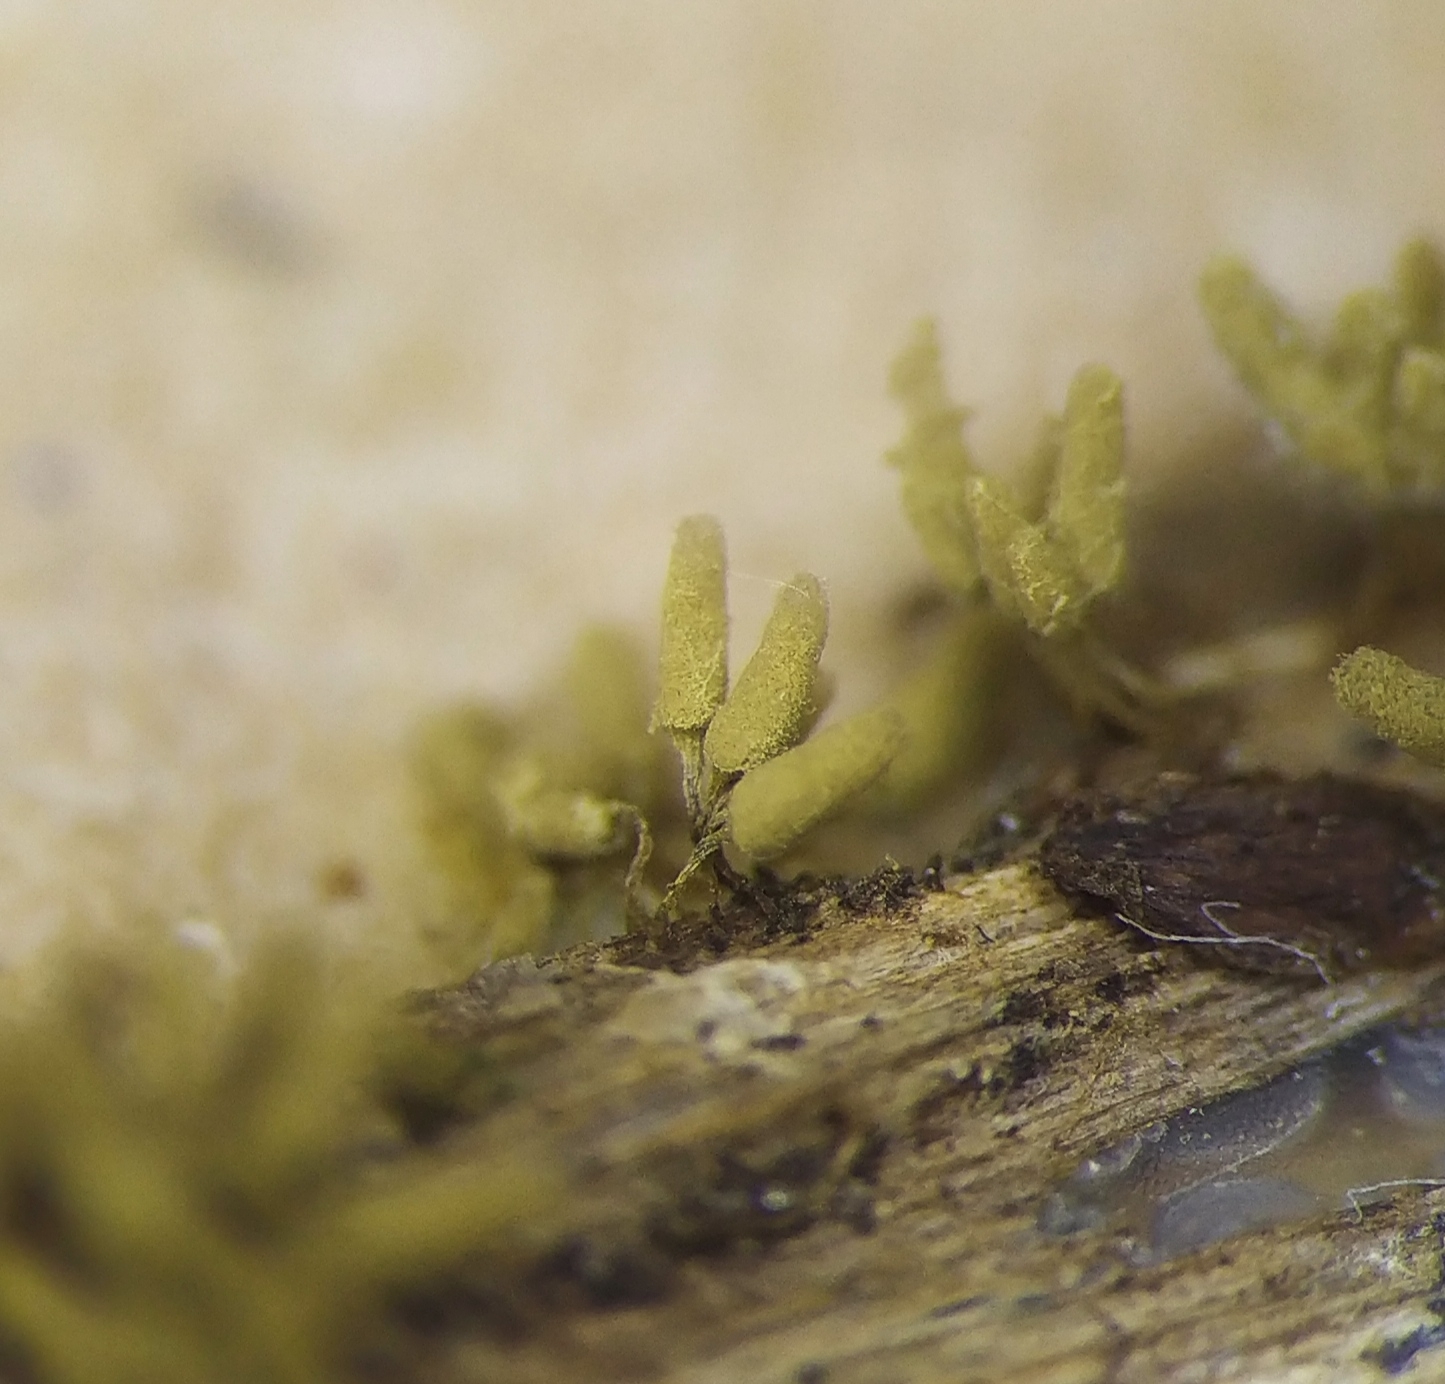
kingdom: Protozoa
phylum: Mycetozoa
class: Myxomycetes
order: Trichiales
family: Arcyriaceae
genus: Arcyria
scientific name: Arcyria cinerea
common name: White carnival candy slime mold
